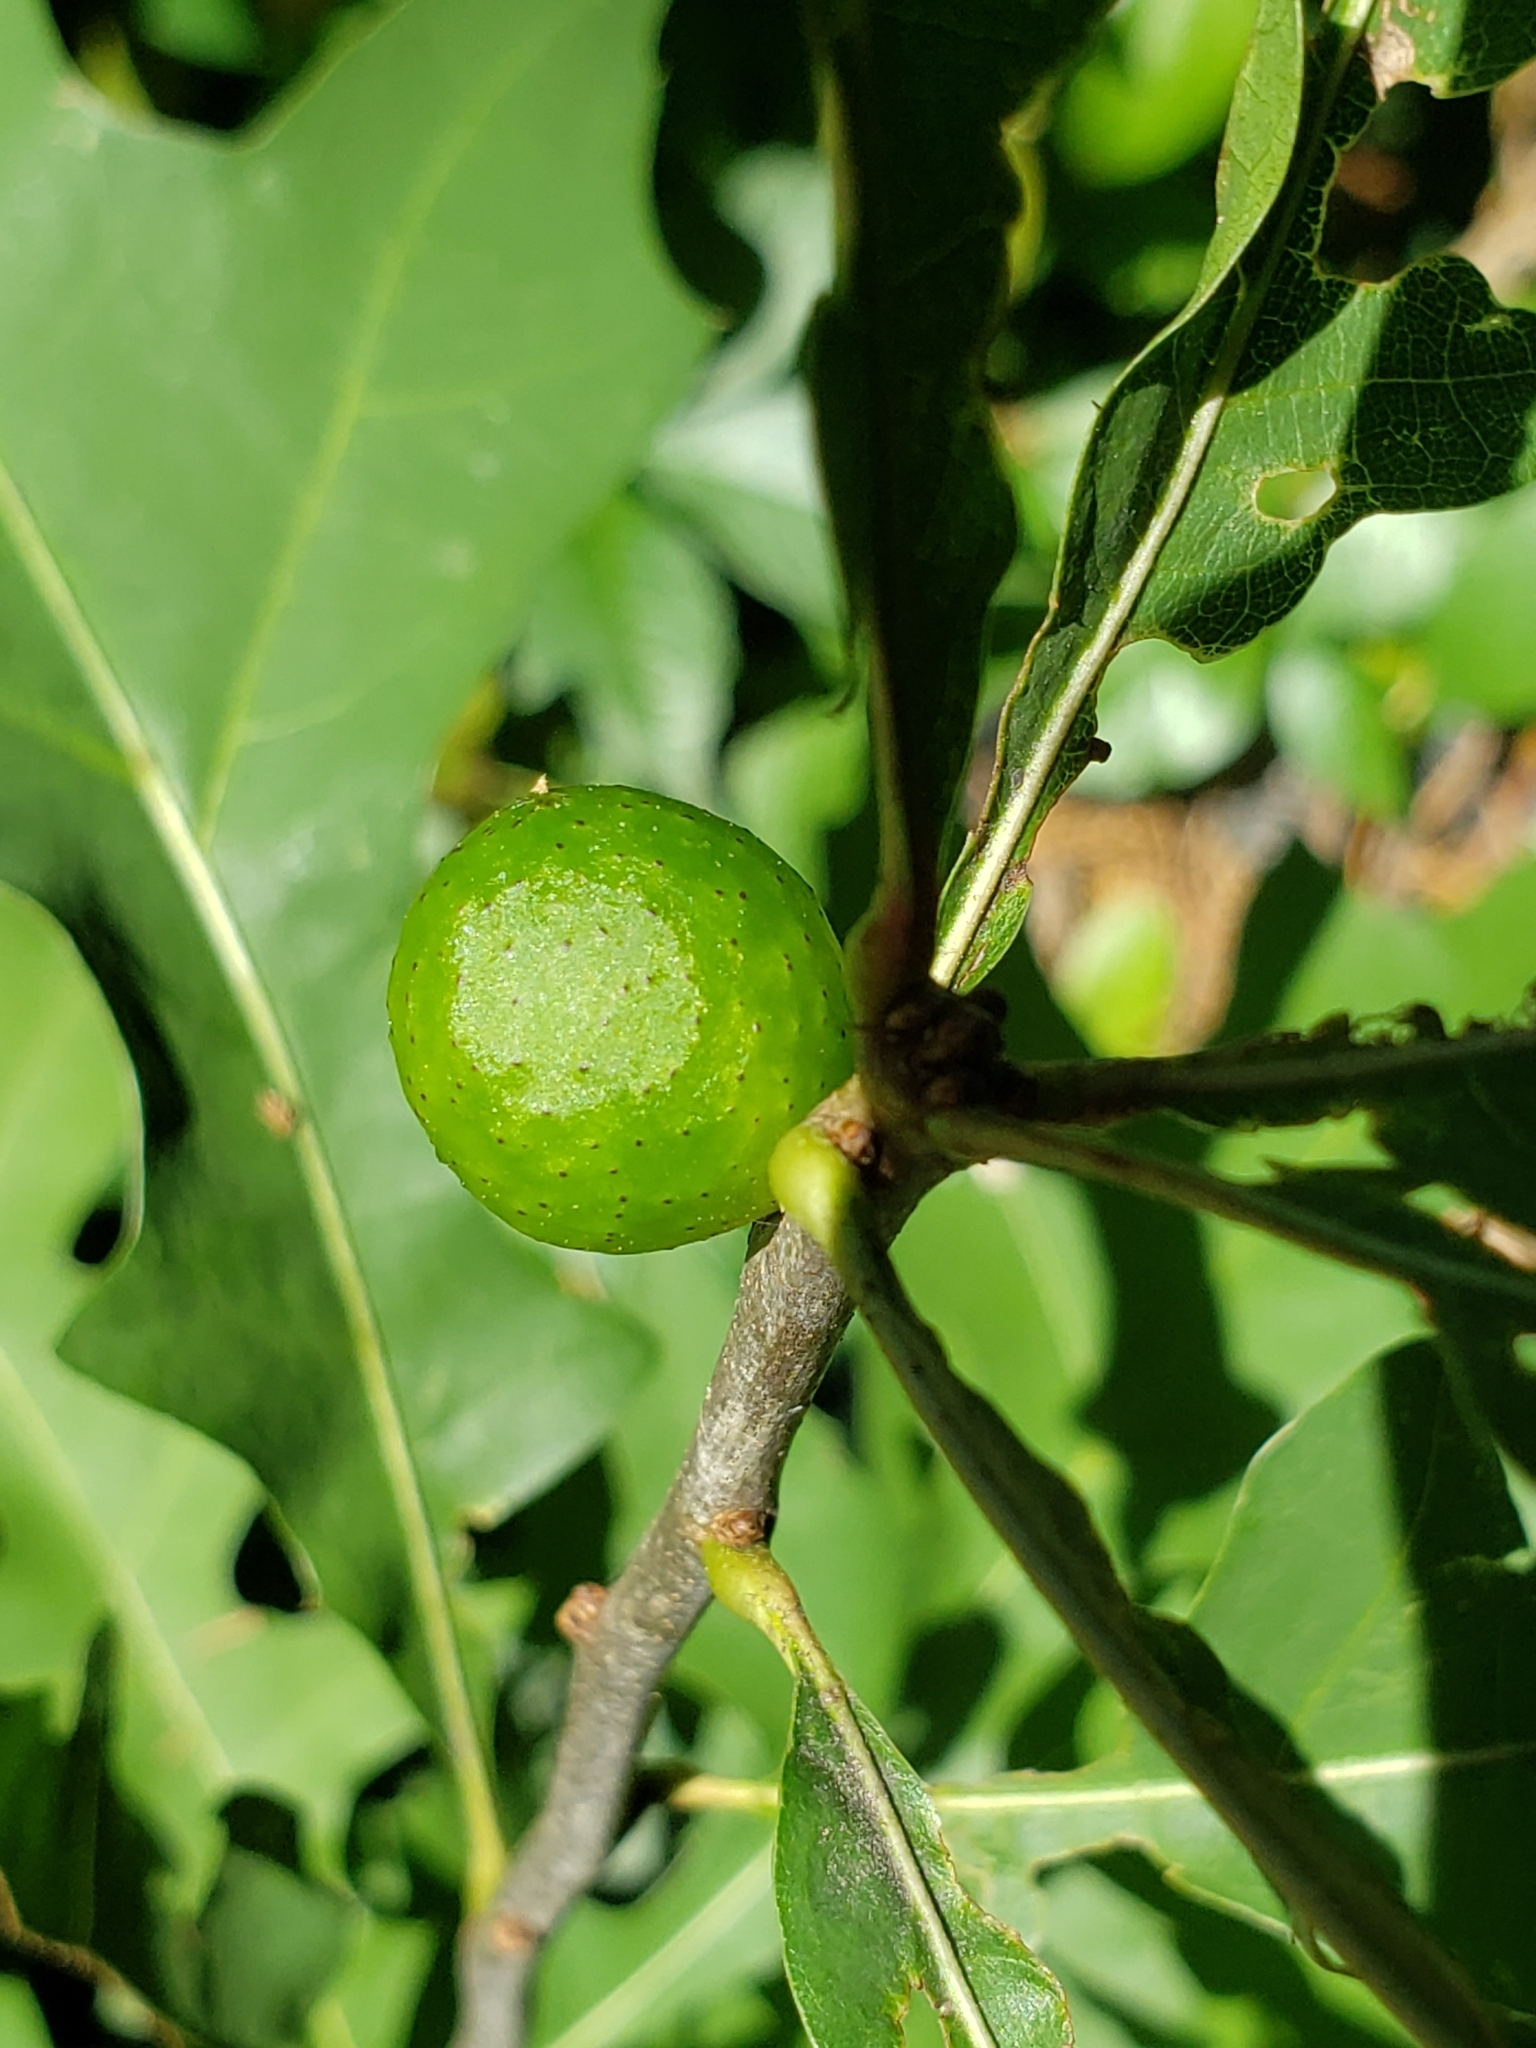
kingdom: Animalia
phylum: Arthropoda
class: Insecta
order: Hymenoptera
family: Cynipidae
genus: Amphibolips
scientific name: Amphibolips
